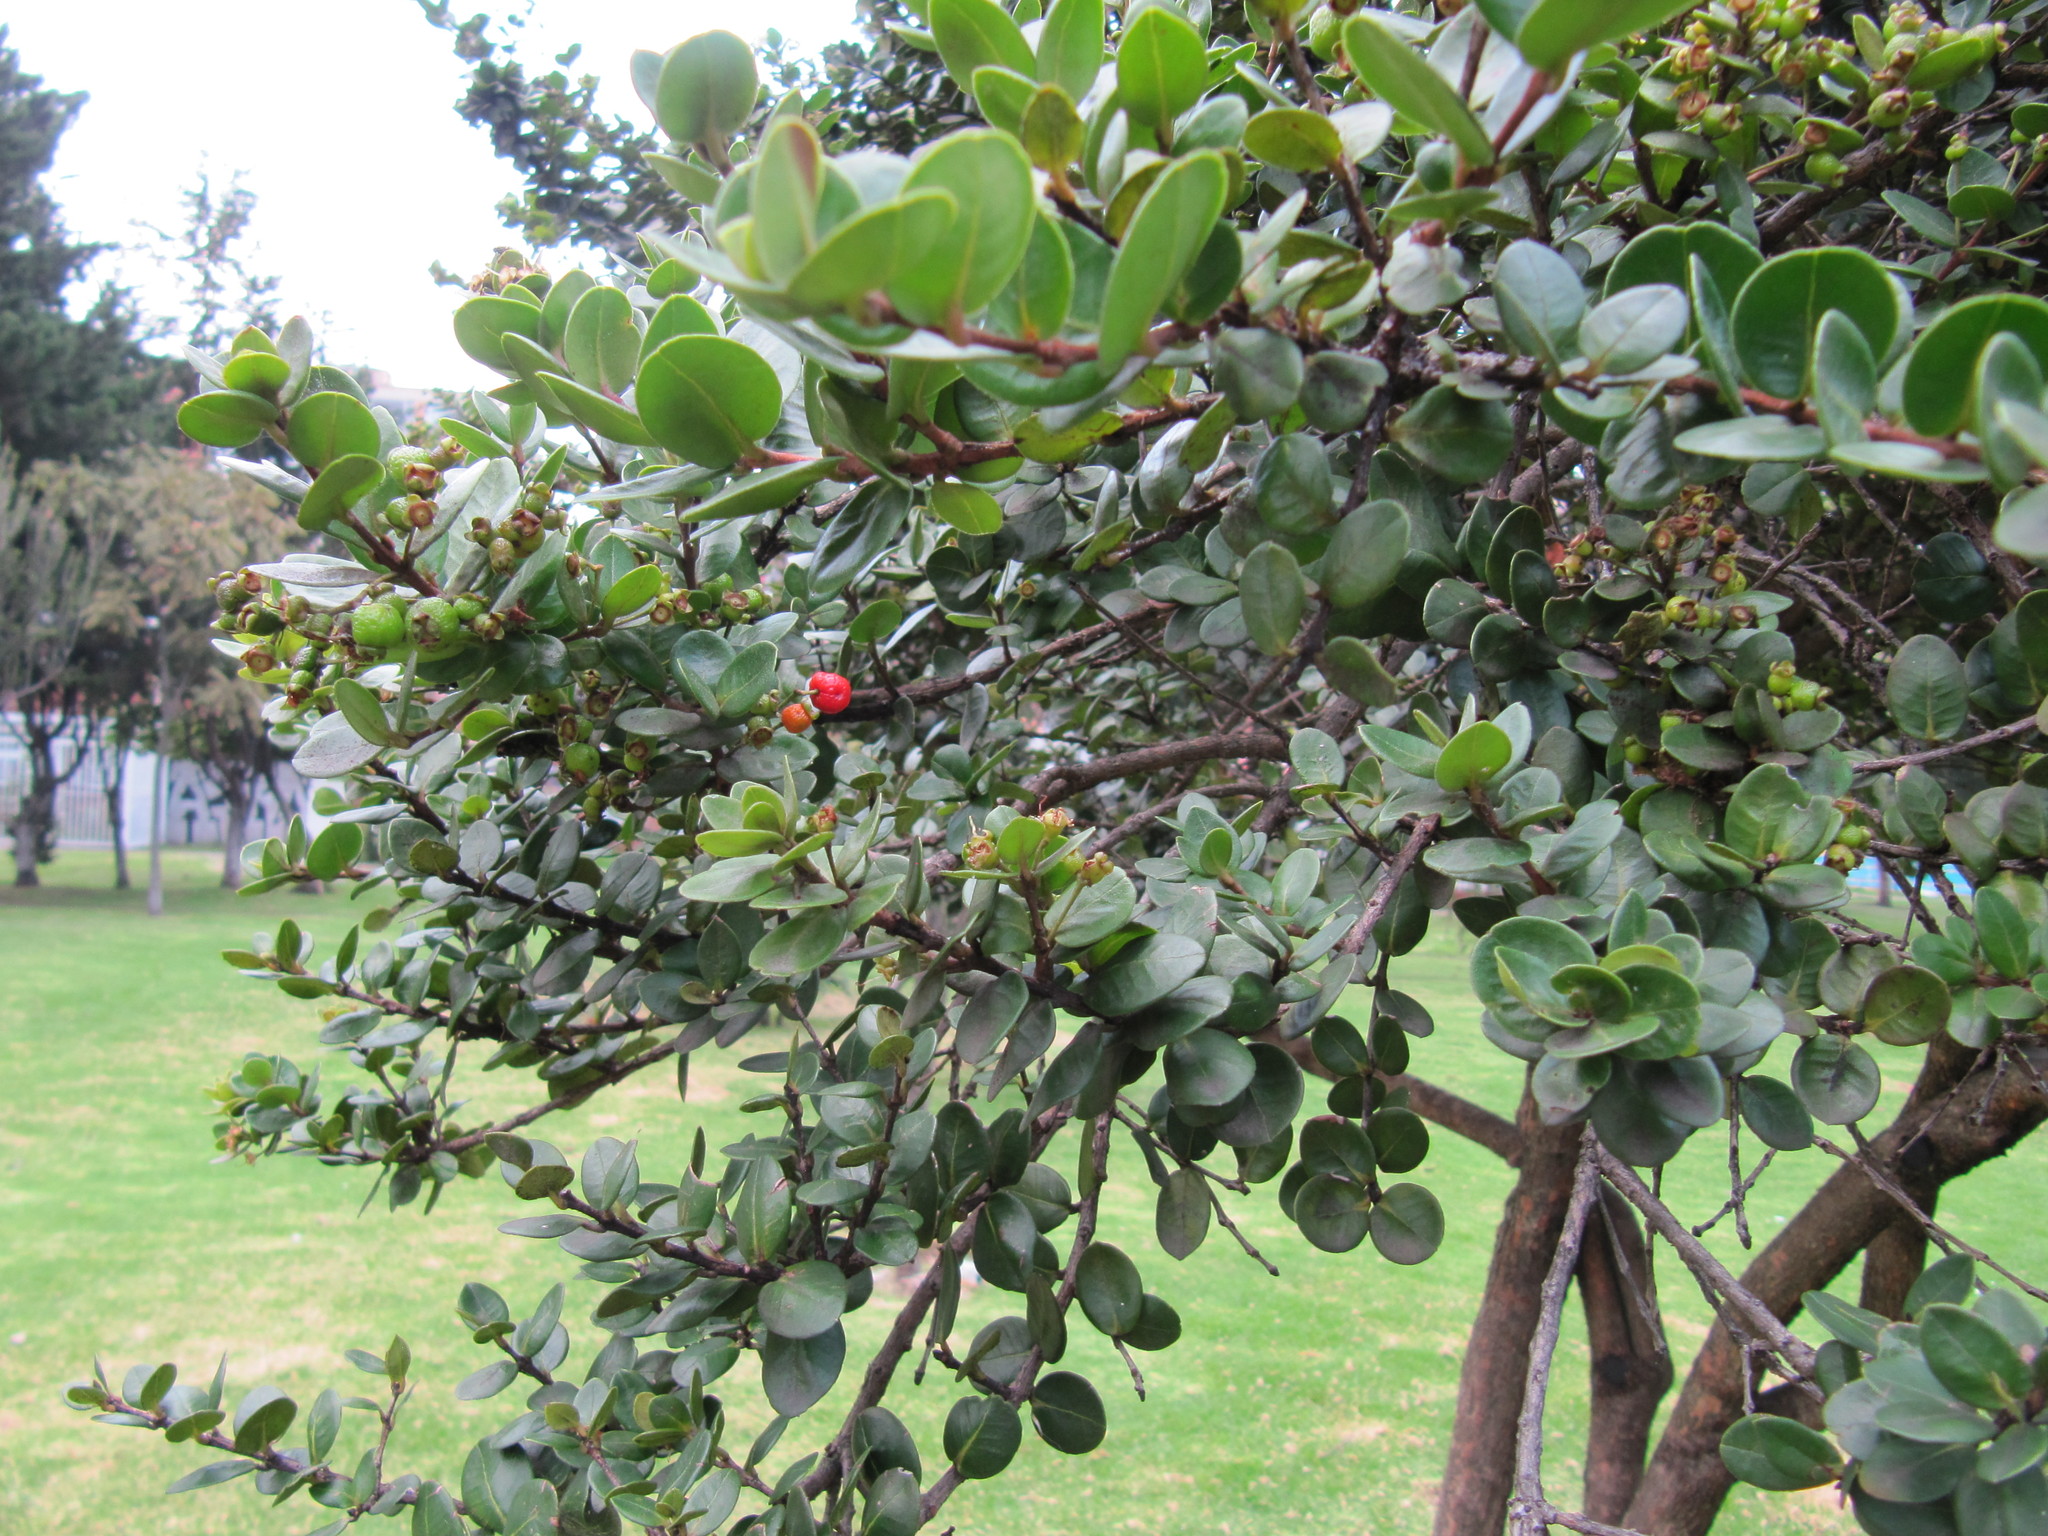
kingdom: Plantae
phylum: Tracheophyta
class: Magnoliopsida
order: Myrtales
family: Myrtaceae
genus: Myrcianthes
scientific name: Myrcianthes leucoxyla
